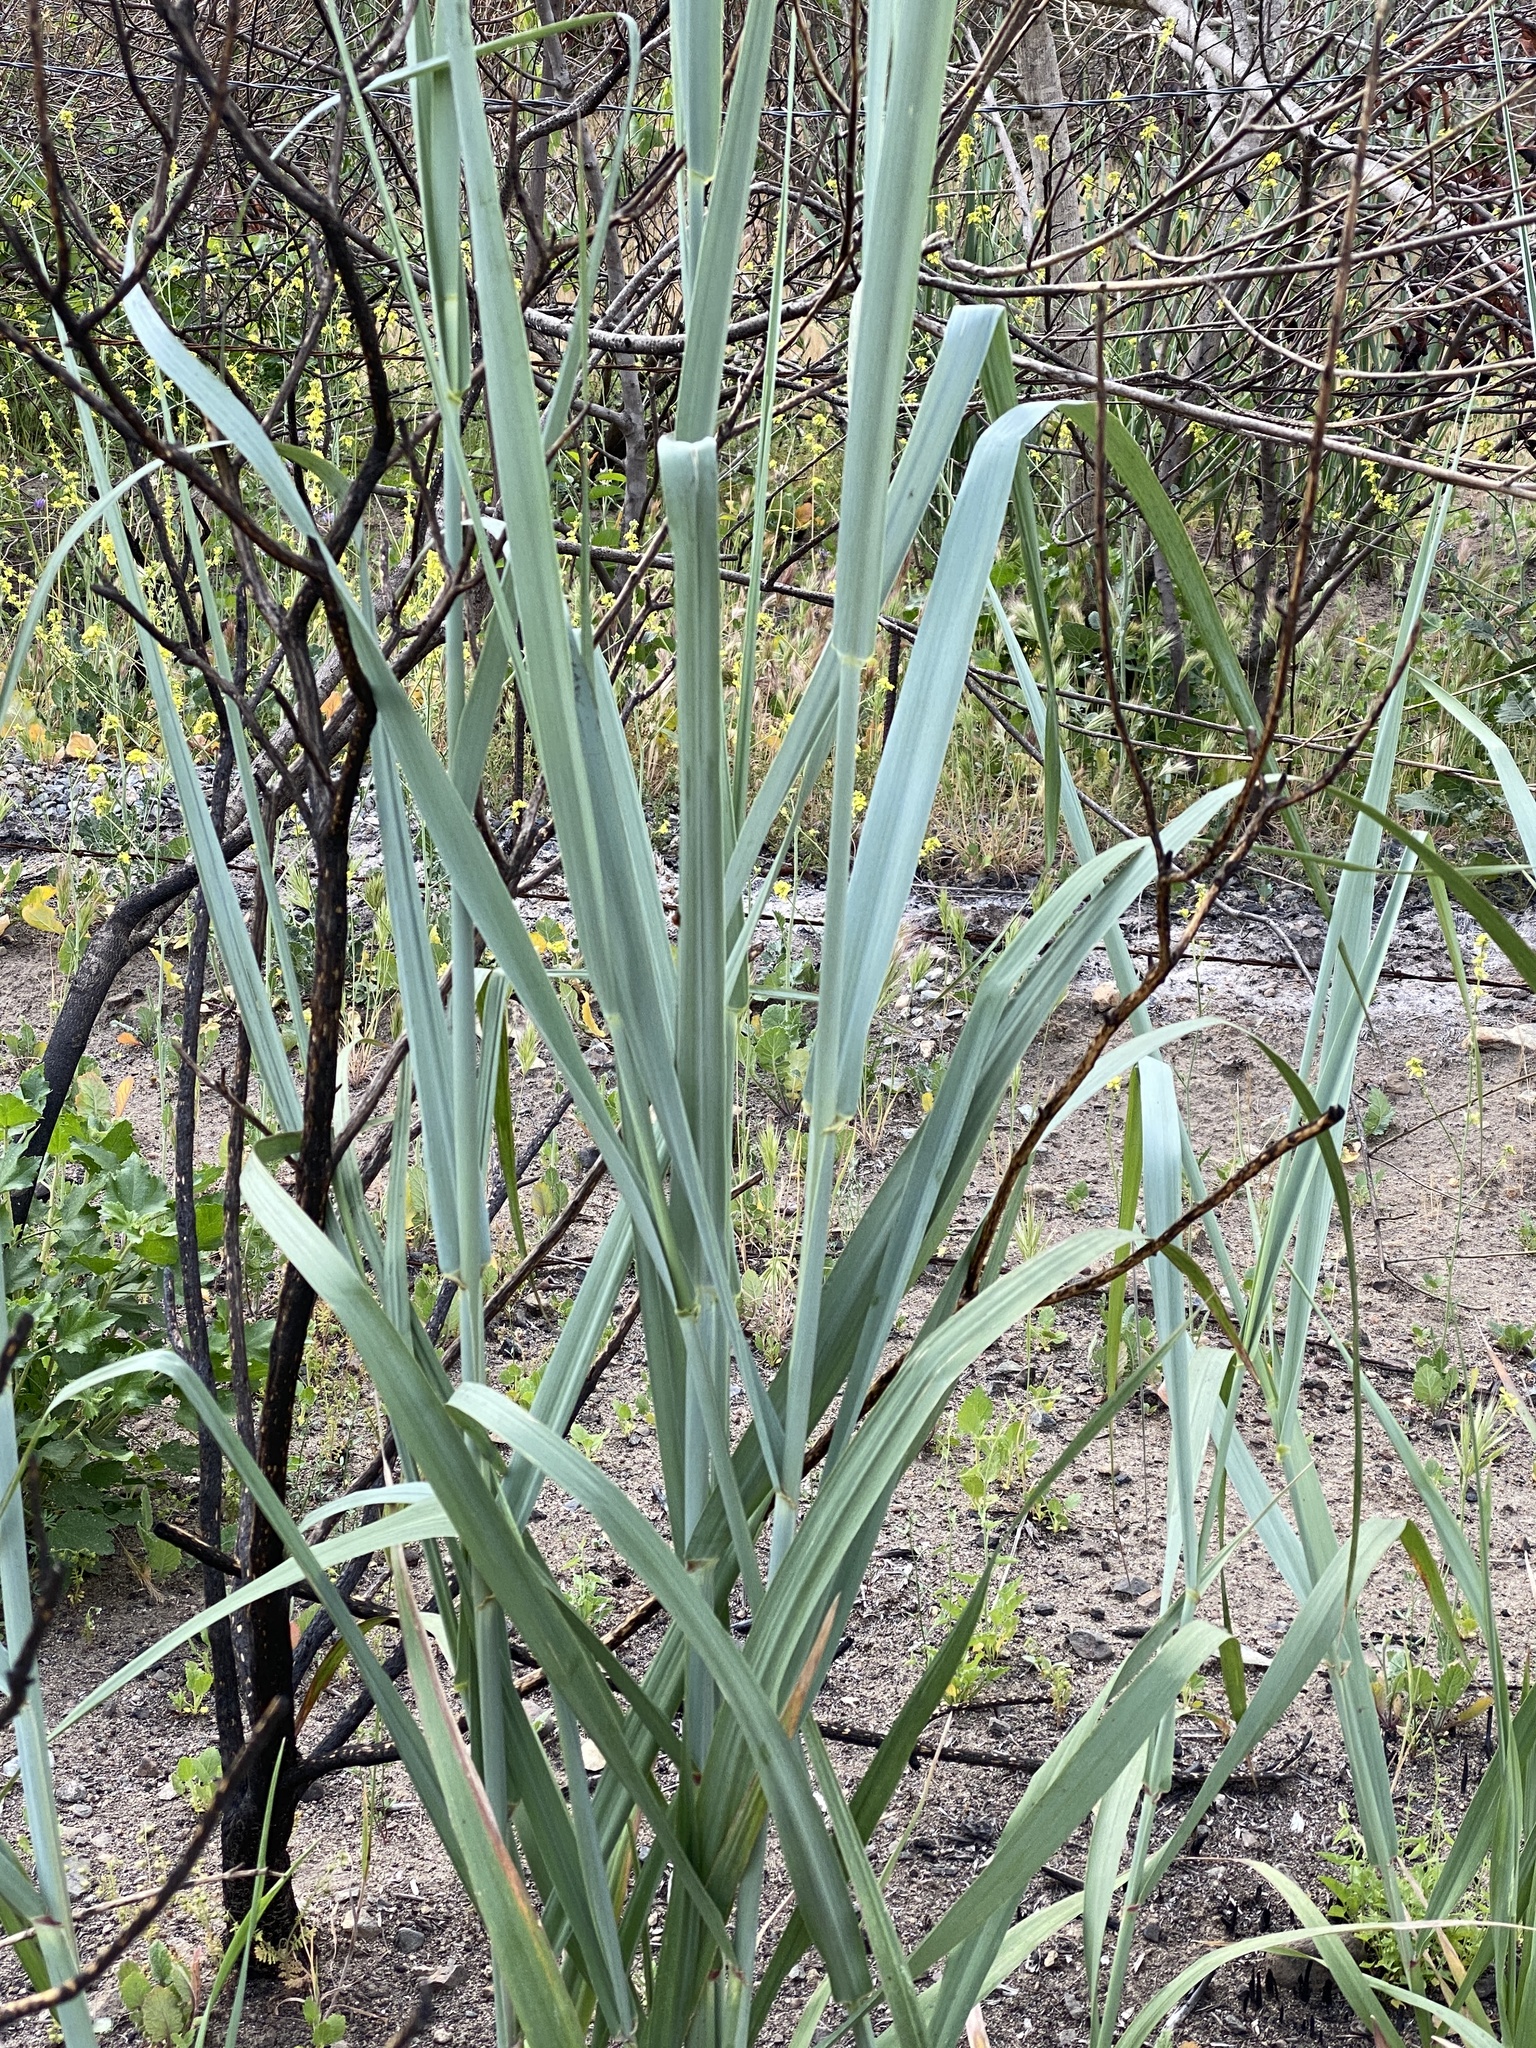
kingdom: Plantae
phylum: Tracheophyta
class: Liliopsida
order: Poales
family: Poaceae
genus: Leymus
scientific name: Leymus condensatus
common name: Giant wild rye
